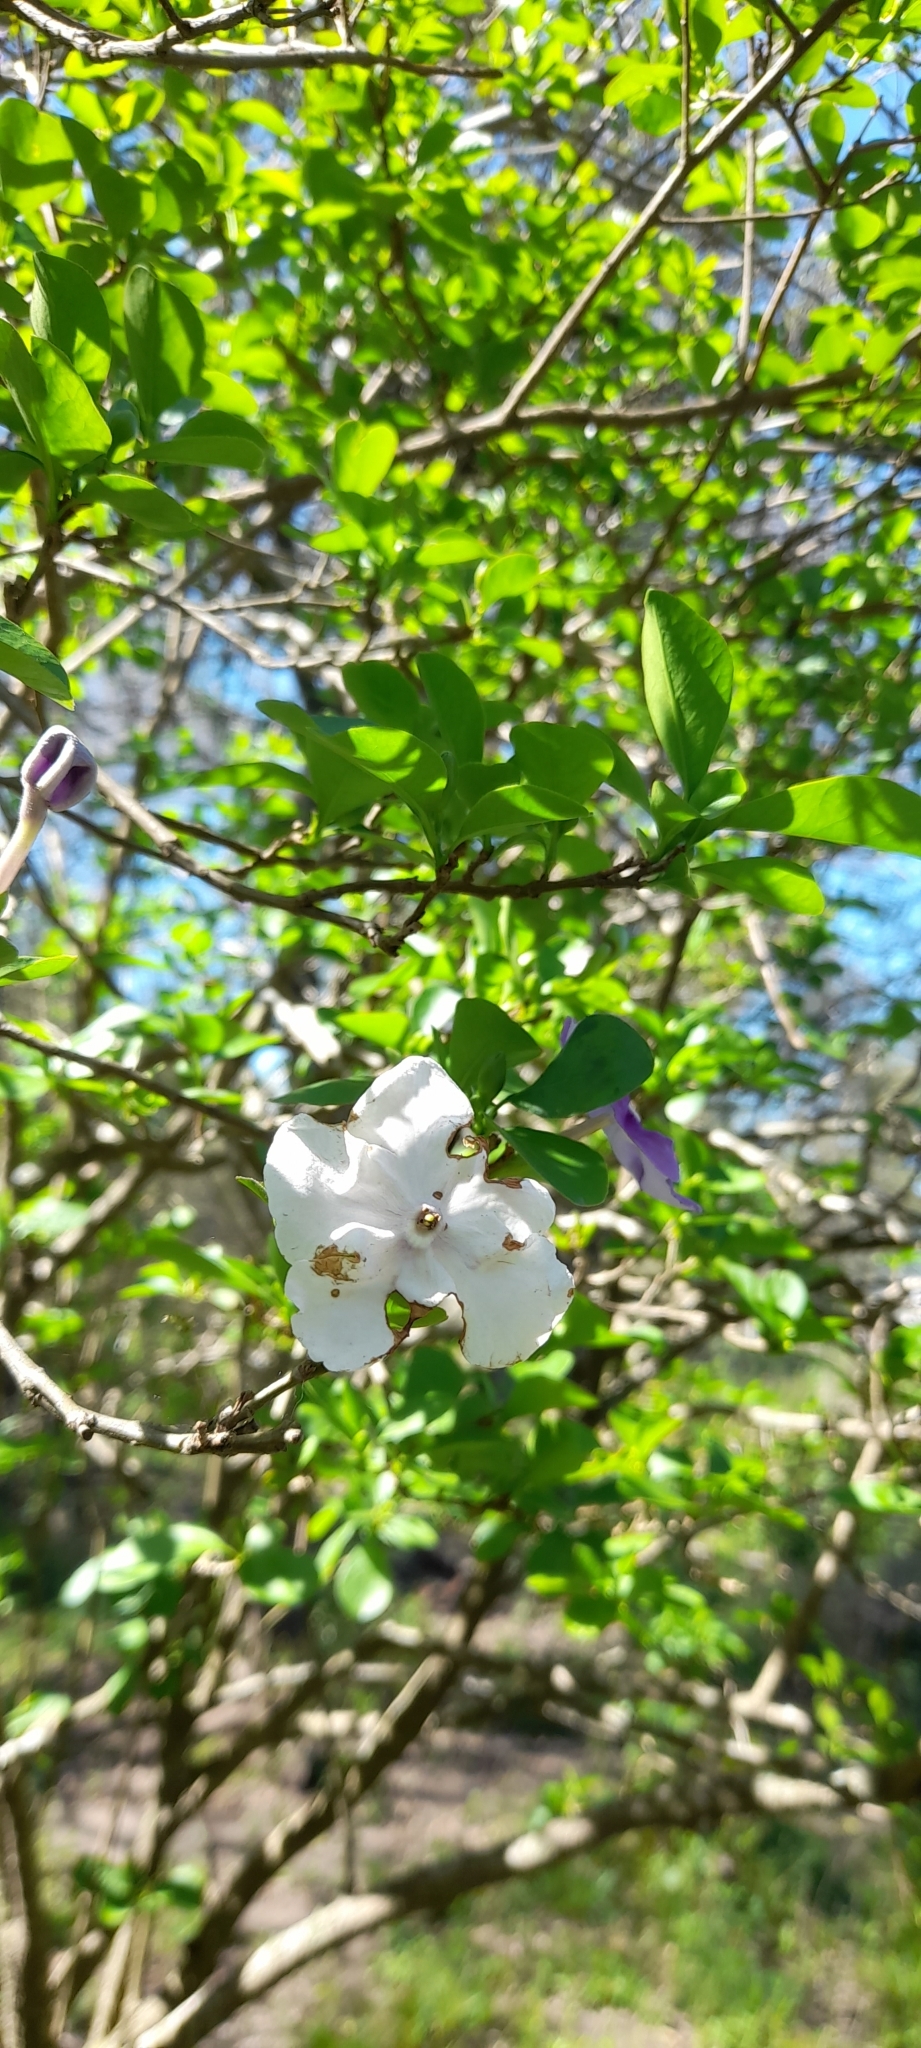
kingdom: Plantae
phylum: Tracheophyta
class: Magnoliopsida
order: Solanales
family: Solanaceae
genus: Brunfelsia
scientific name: Brunfelsia australis
